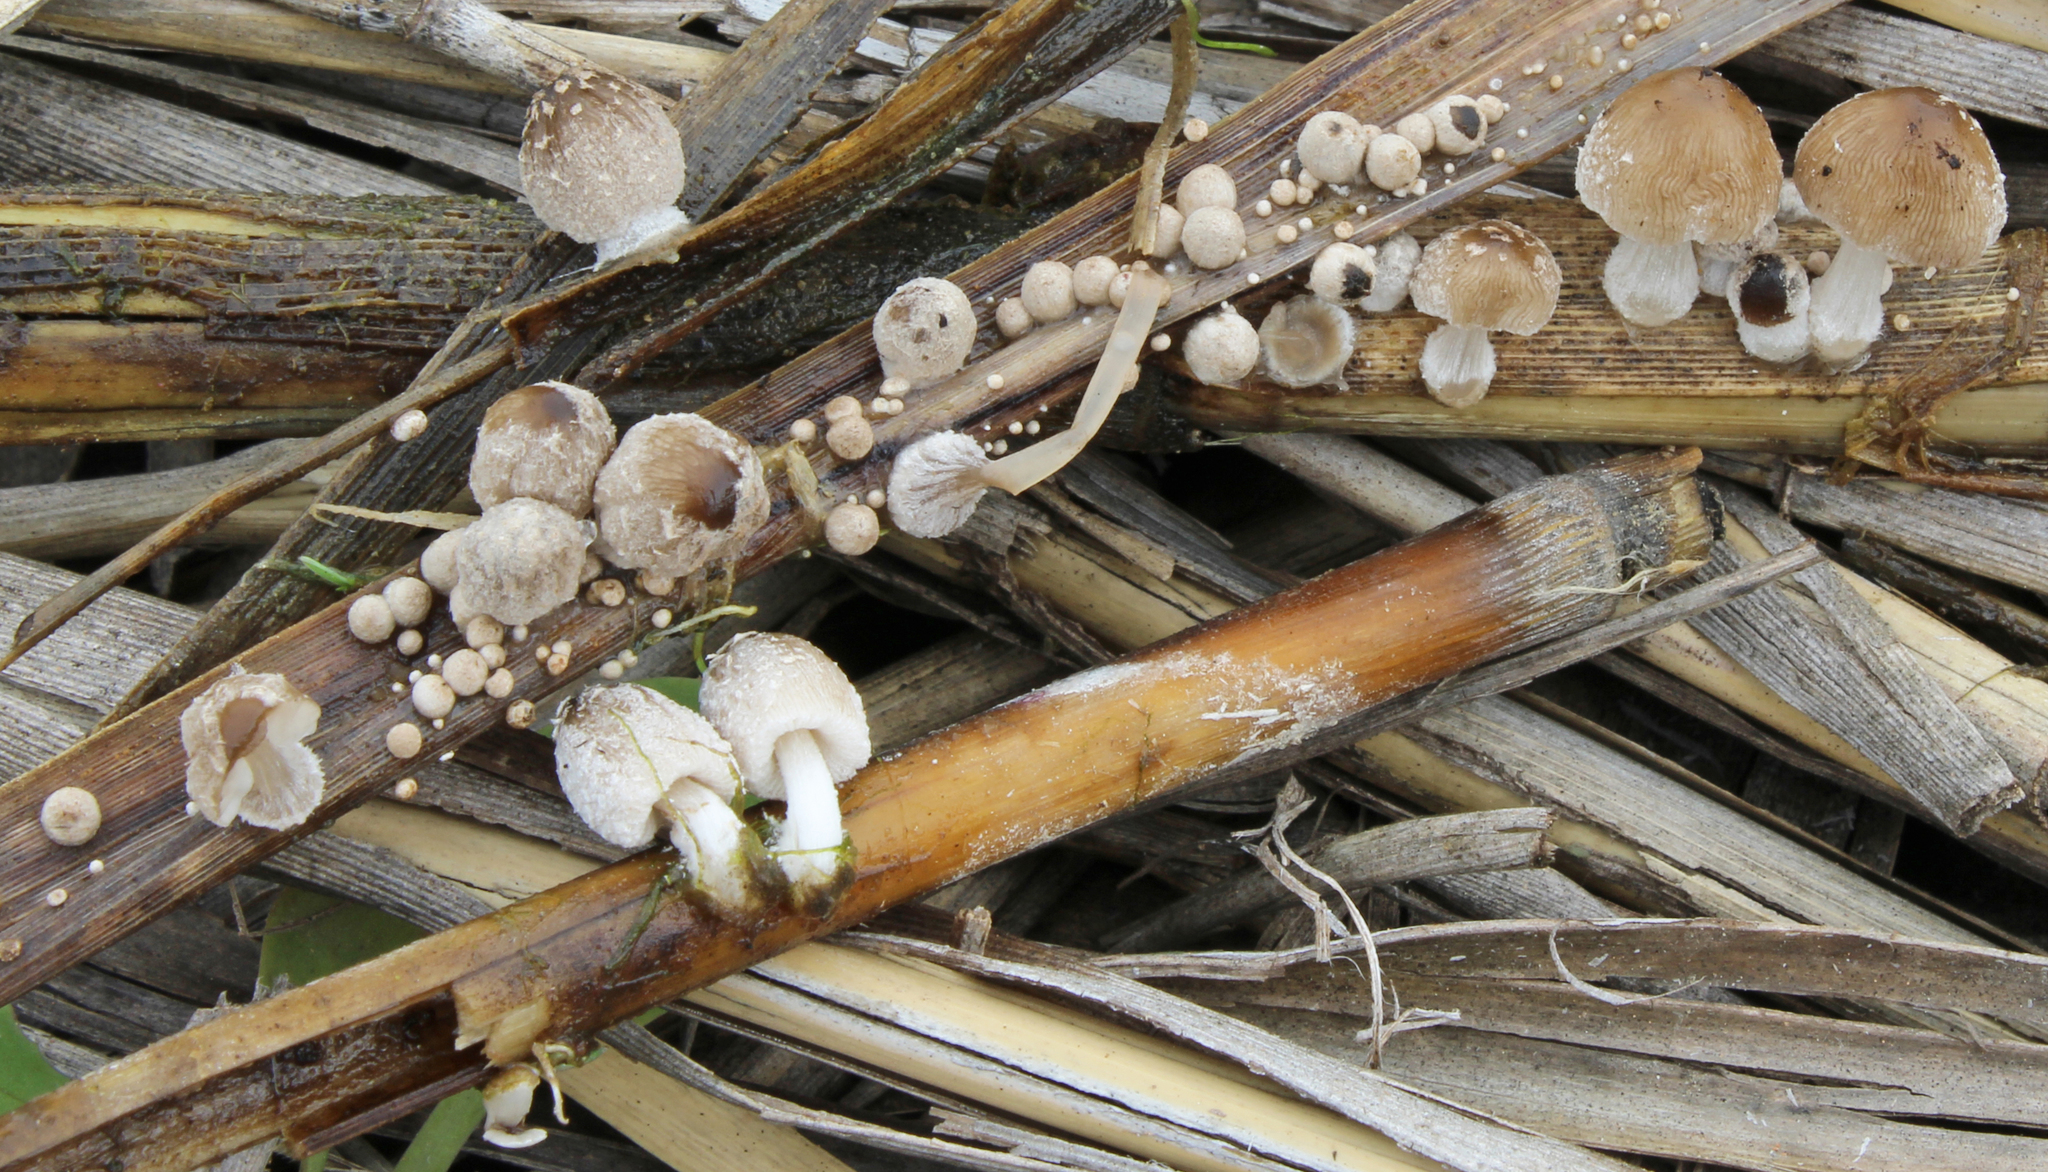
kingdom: Fungi
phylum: Basidiomycota
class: Agaricomycetes
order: Agaricales
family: Psathyrellaceae
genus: Coprinopsis
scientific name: Coprinopsis kubickae
